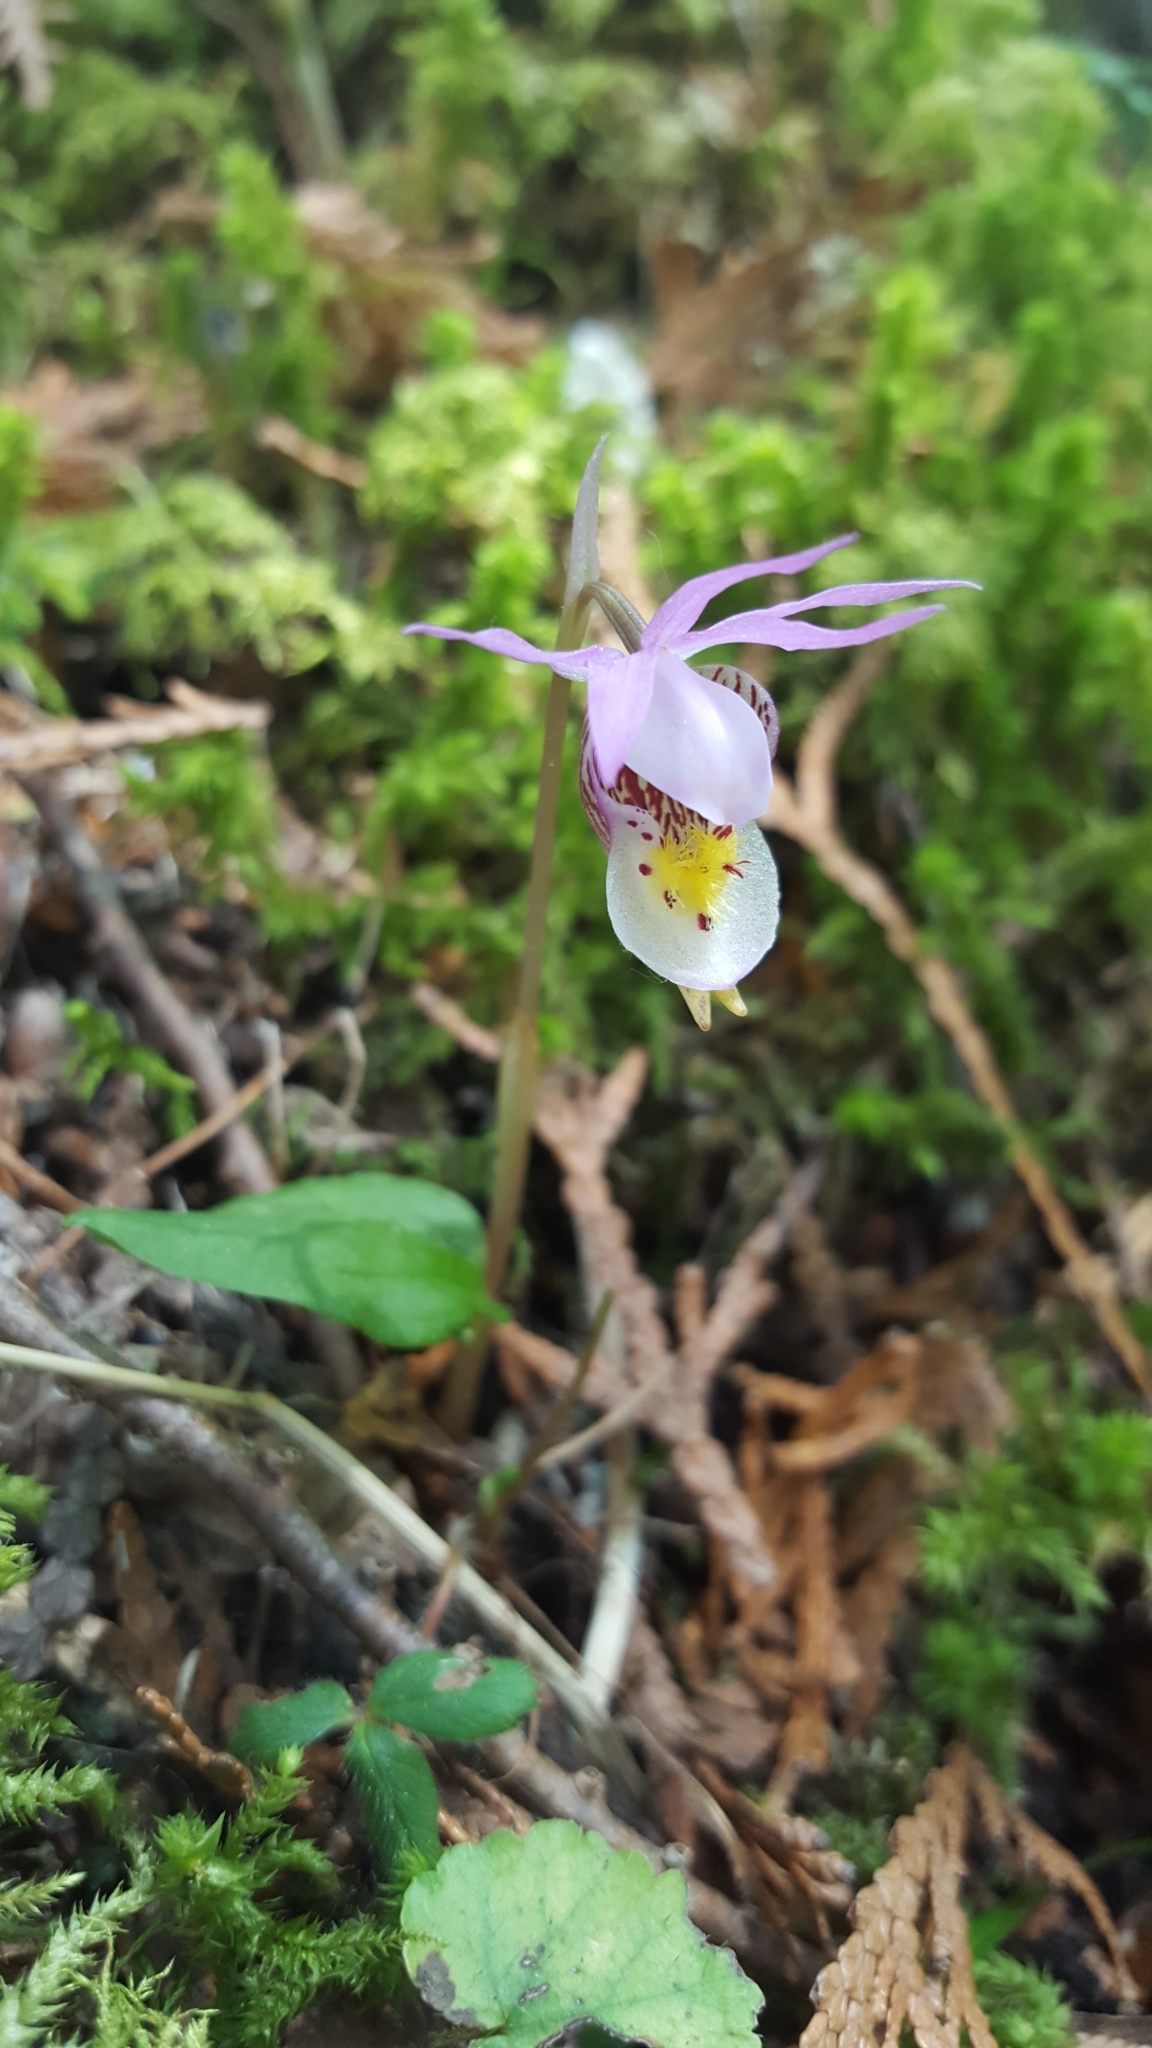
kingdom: Plantae
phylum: Tracheophyta
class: Liliopsida
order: Asparagales
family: Orchidaceae
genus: Calypso
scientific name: Calypso bulbosa
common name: Calypso
